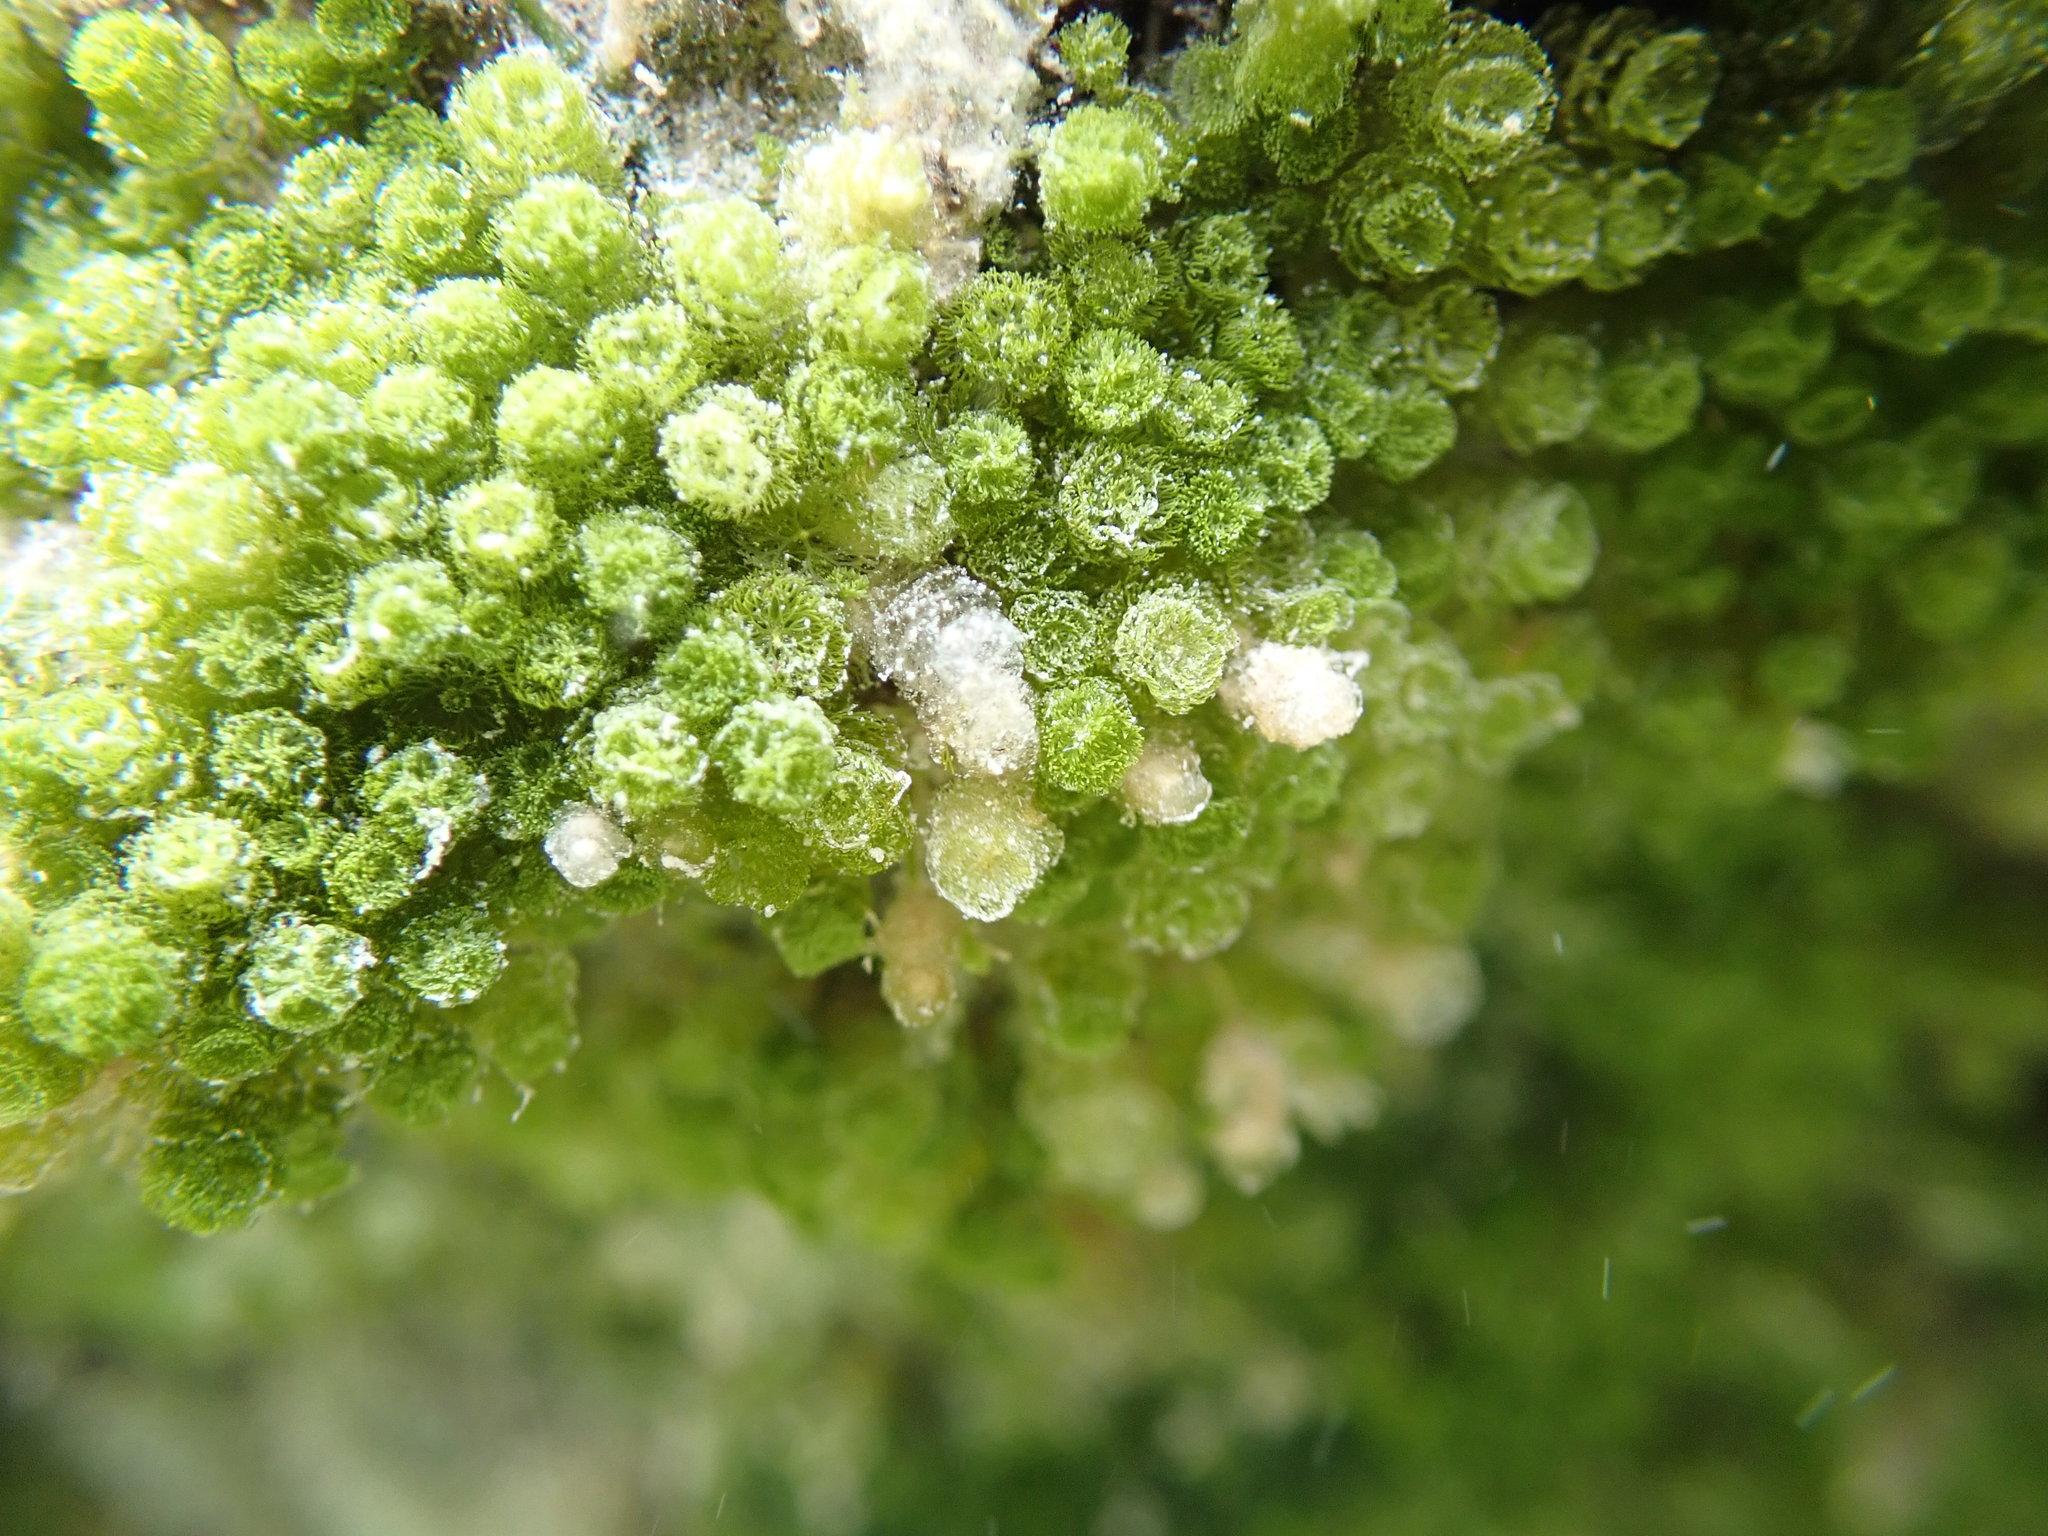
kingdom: Plantae
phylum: Chlorophyta
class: Ulvophyceae
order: Bryopsidales
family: Caulerpaceae
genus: Caulerpa
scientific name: Caulerpa verticillata
